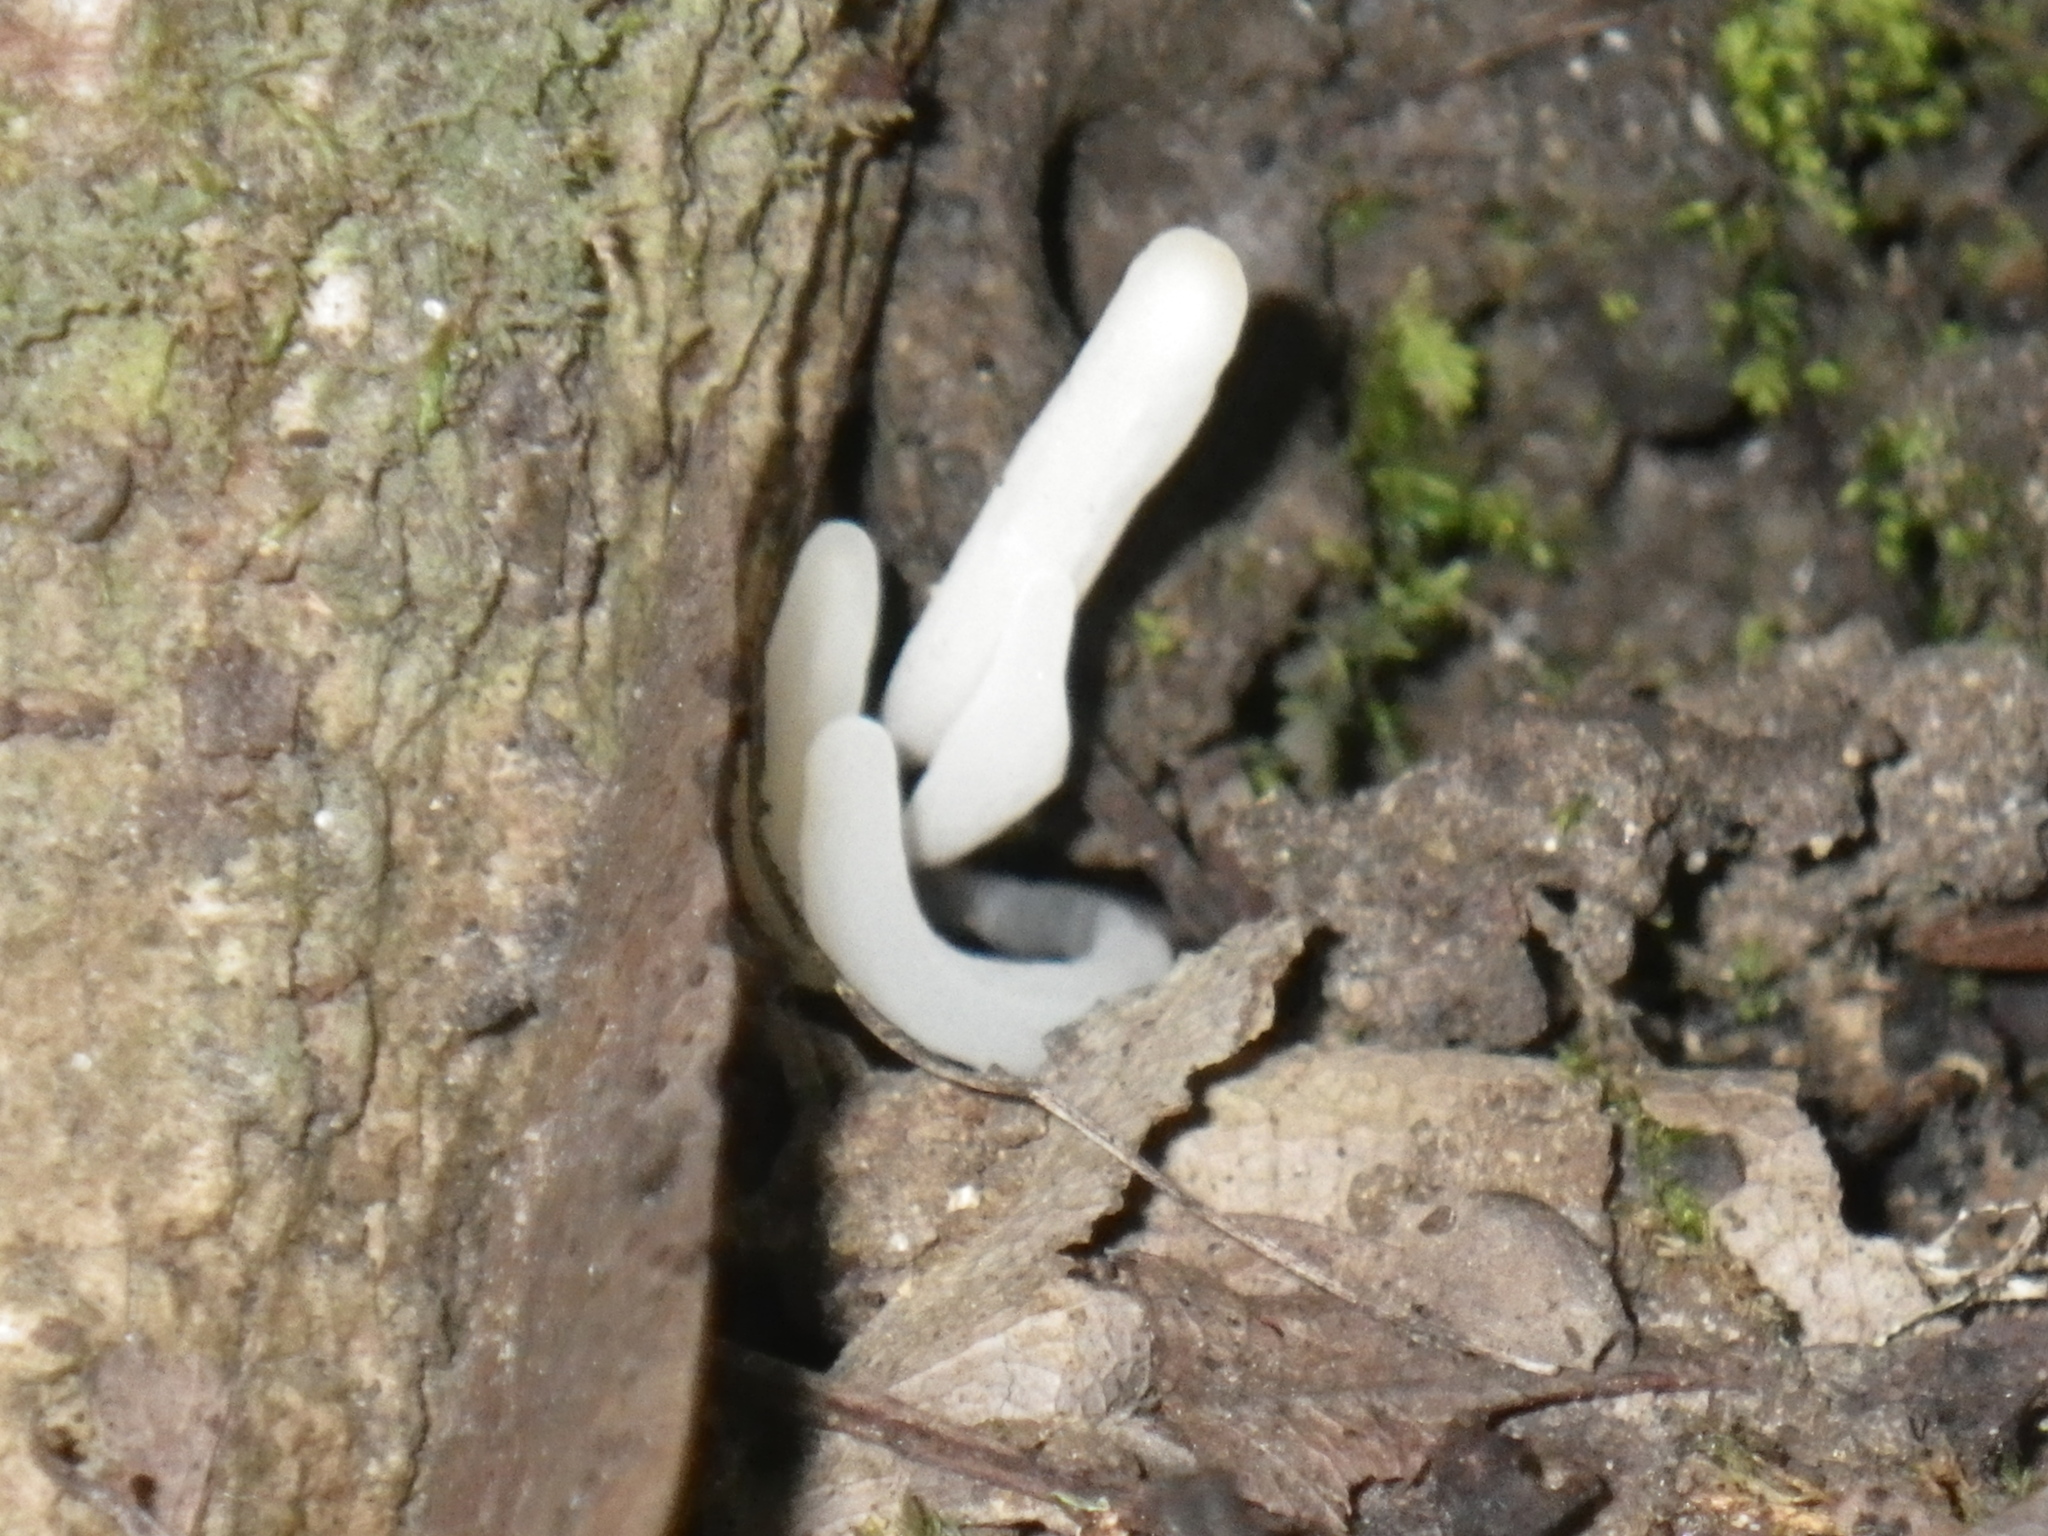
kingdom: Fungi
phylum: Basidiomycota
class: Agaricomycetes
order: Agaricales
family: Clavariaceae
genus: Clavaria
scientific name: Clavaria fragilis
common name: White spindles
